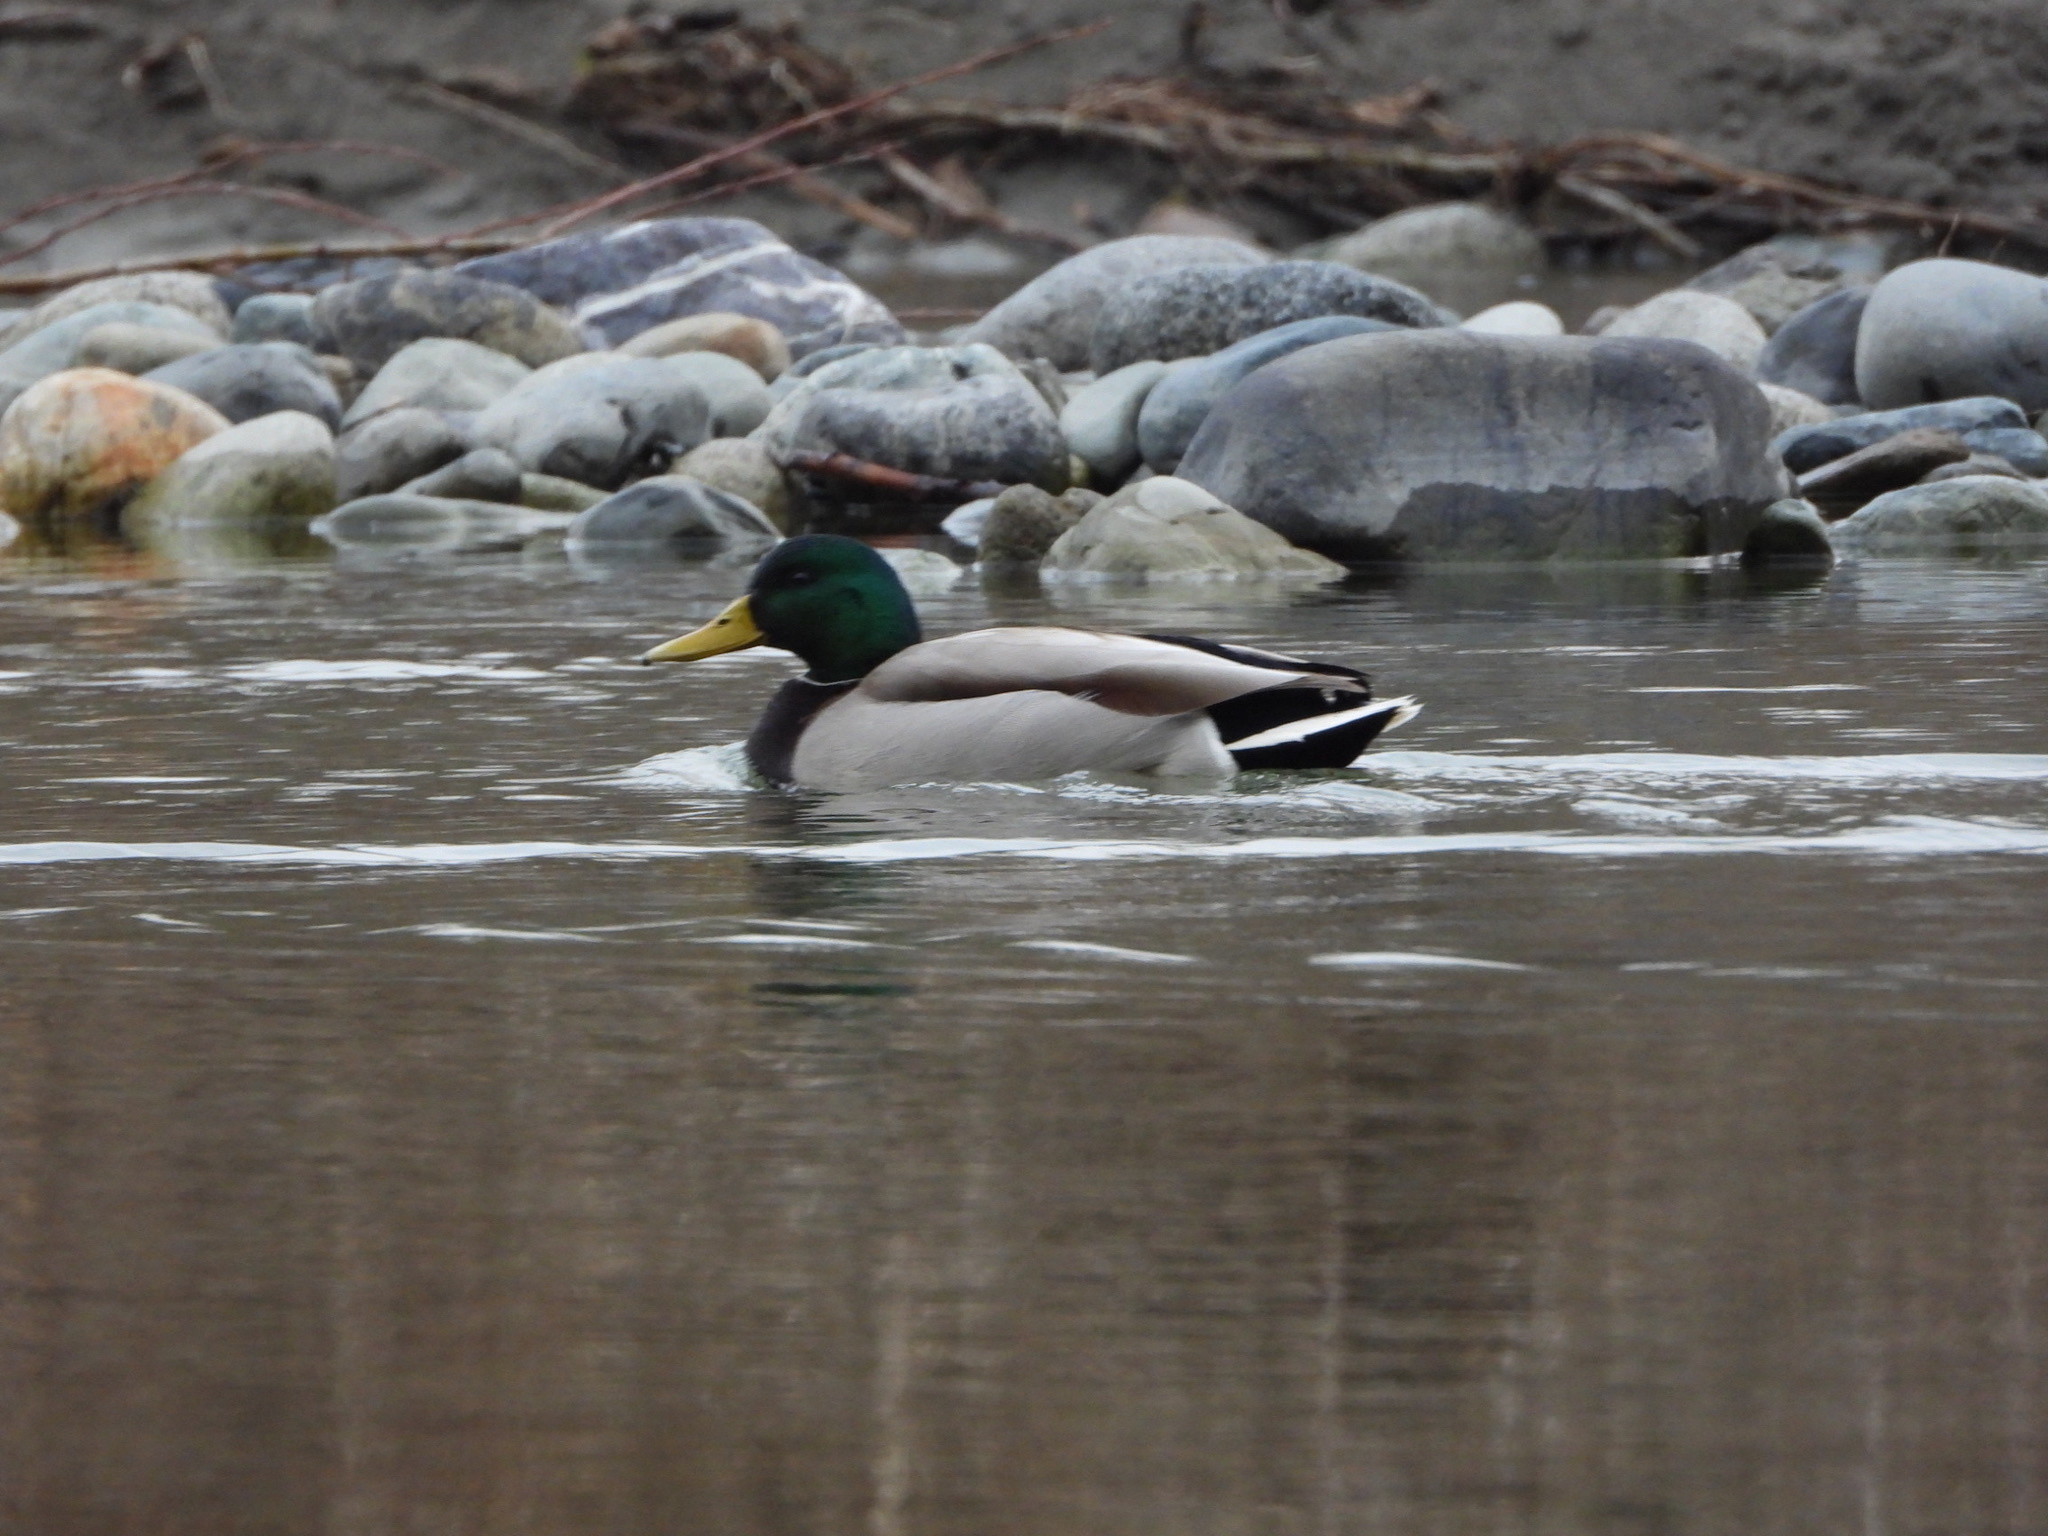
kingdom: Animalia
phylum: Chordata
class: Aves
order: Anseriformes
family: Anatidae
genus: Anas
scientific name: Anas platyrhynchos
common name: Mallard
